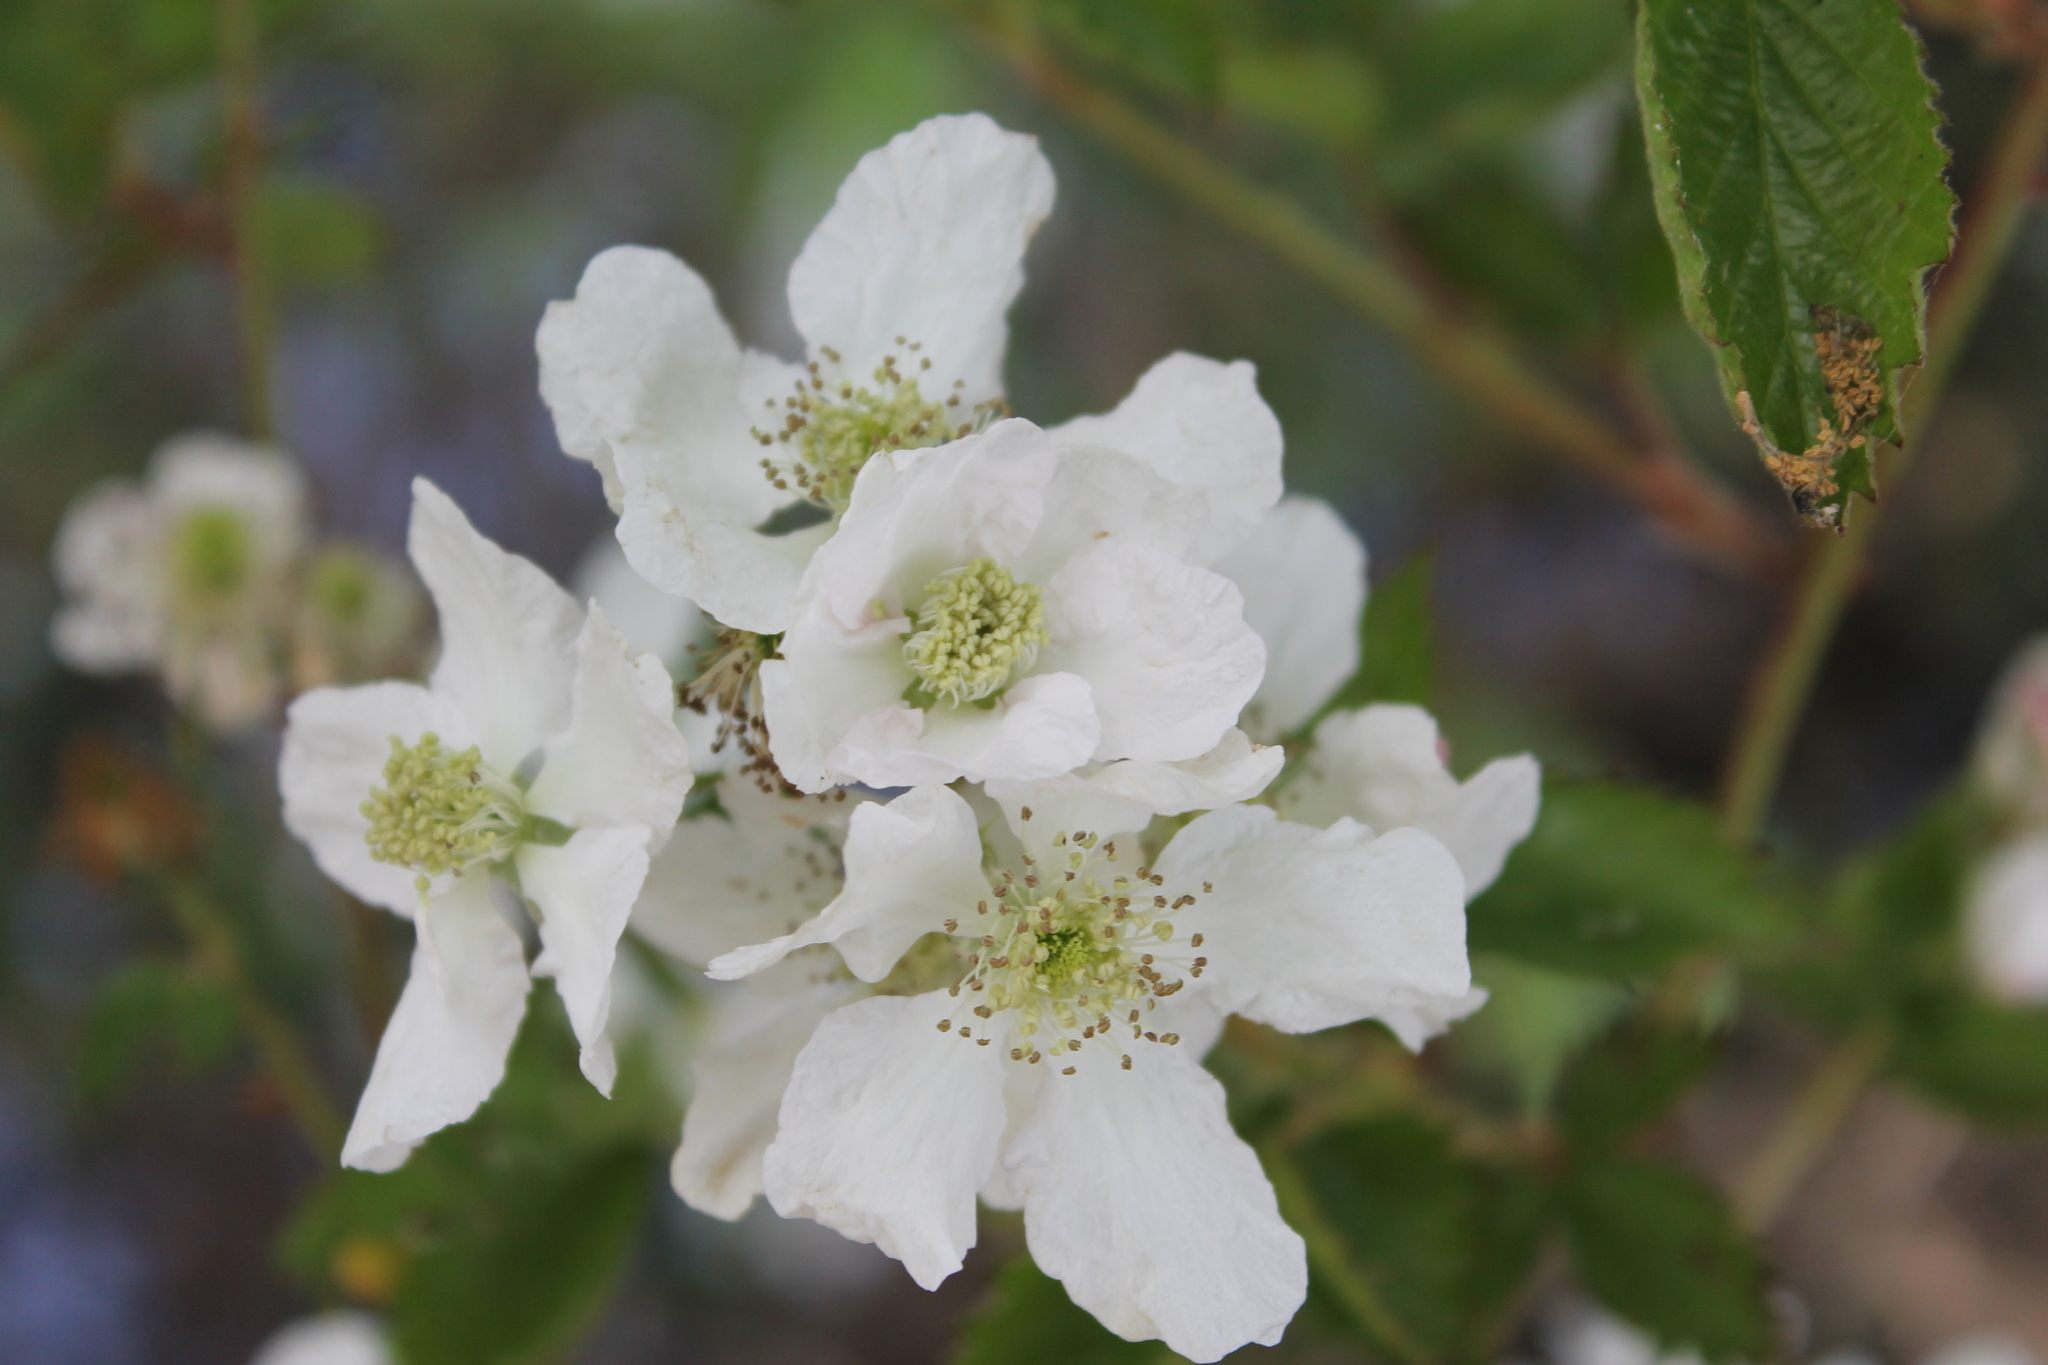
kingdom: Plantae
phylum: Tracheophyta
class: Magnoliopsida
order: Rosales
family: Rosaceae
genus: Rubus
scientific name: Rubus macropetalus
